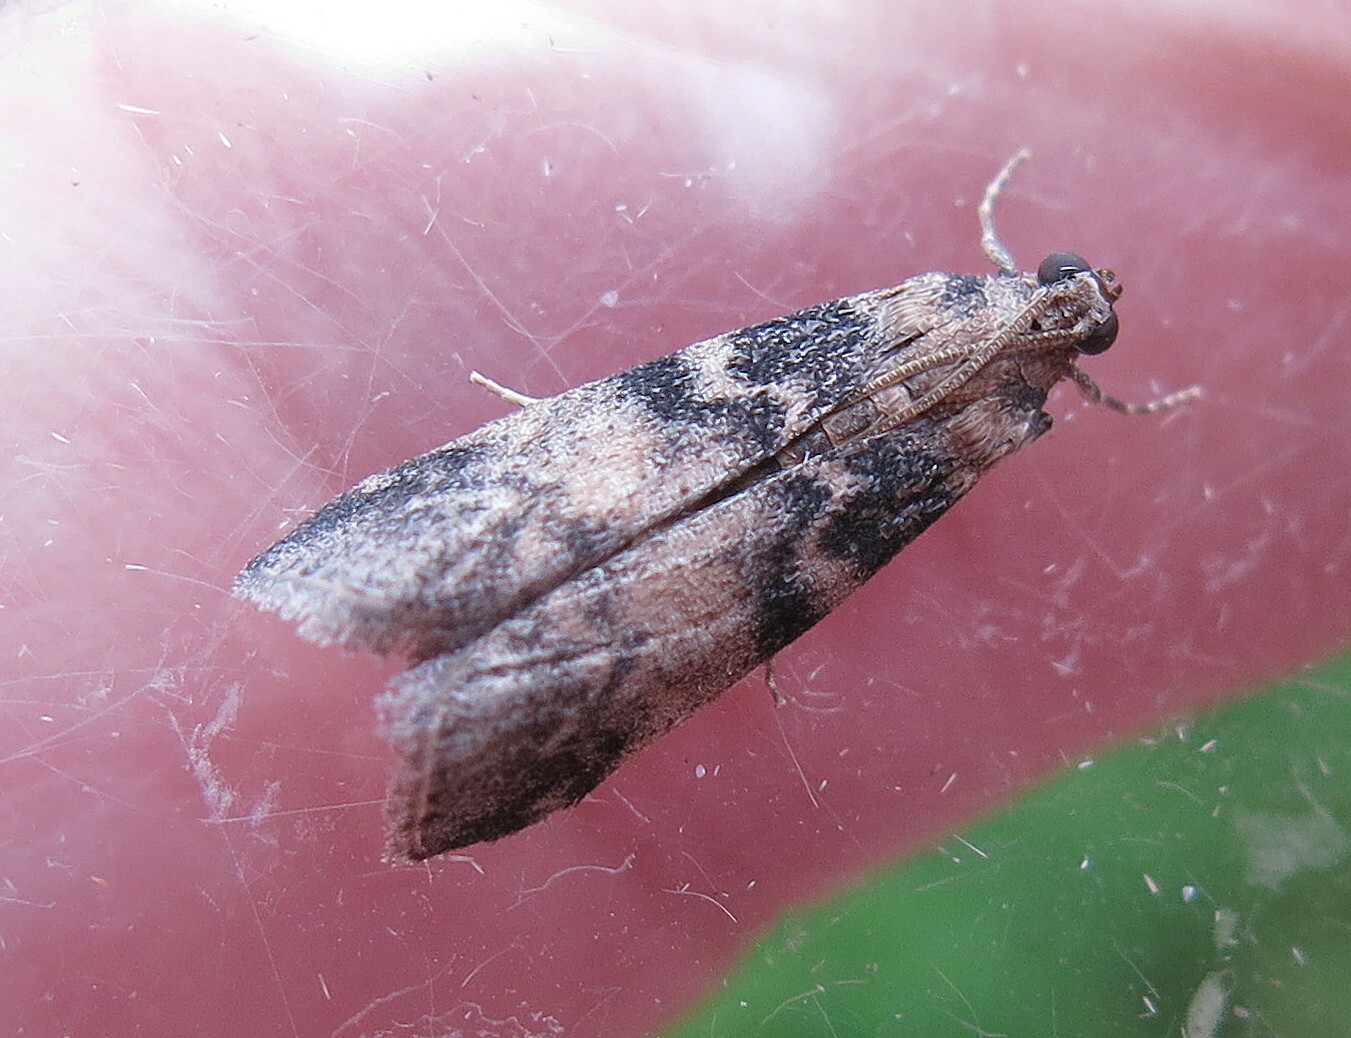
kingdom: Animalia
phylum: Arthropoda
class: Insecta
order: Lepidoptera
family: Pyralidae
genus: Euzophera
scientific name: Euzophera pinguis
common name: Ash-bark knot-horn
